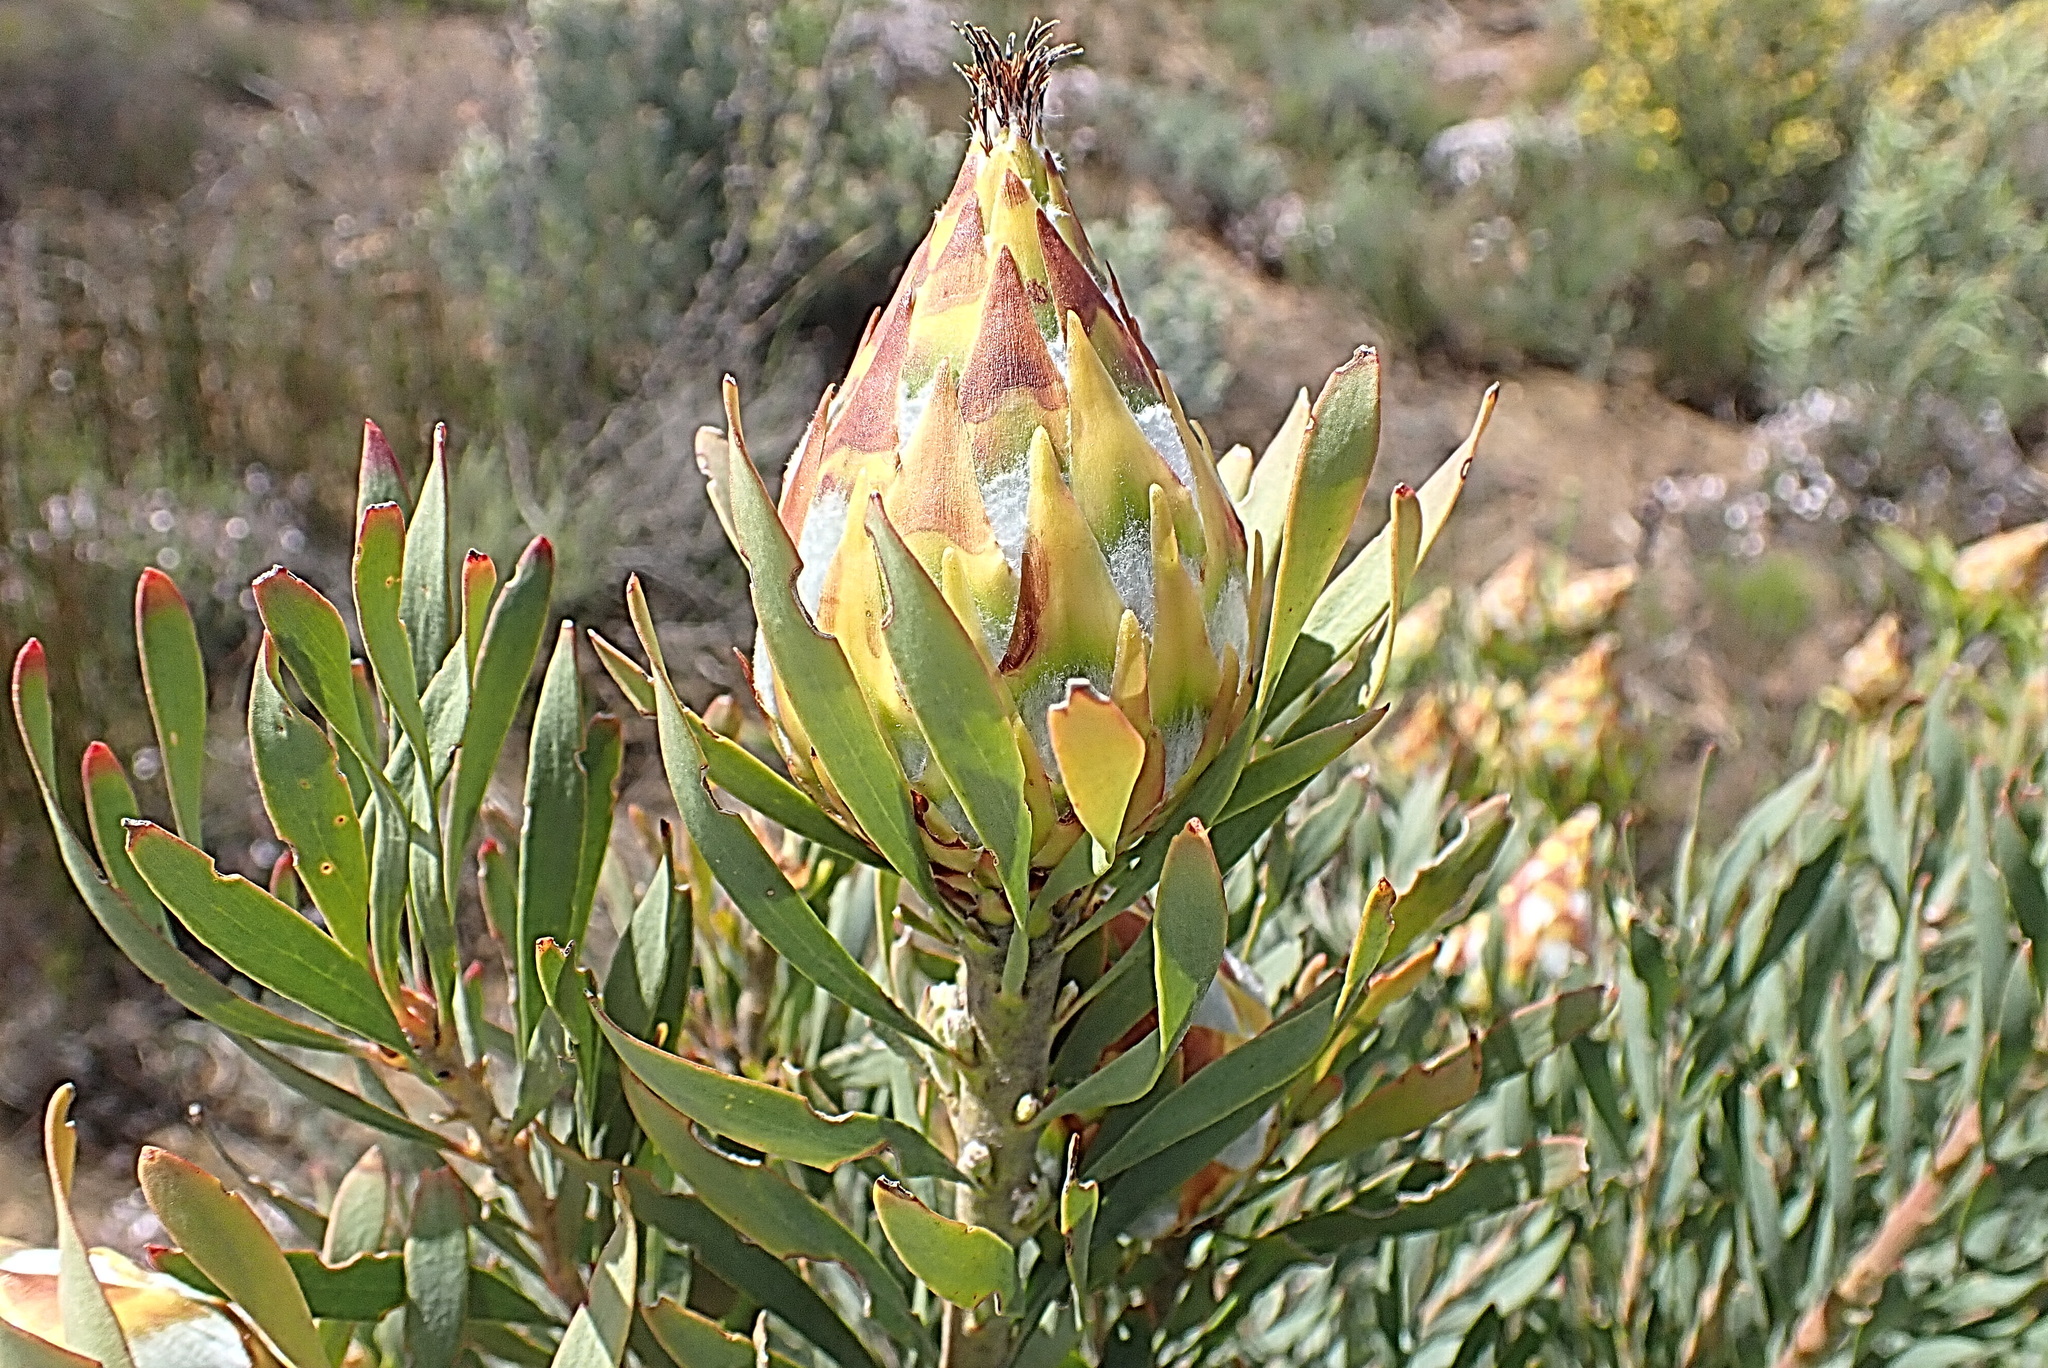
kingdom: Plantae
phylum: Tracheophyta
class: Magnoliopsida
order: Proteales
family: Proteaceae
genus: Leucadendron
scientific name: Leucadendron rubrum
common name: Spinning top
